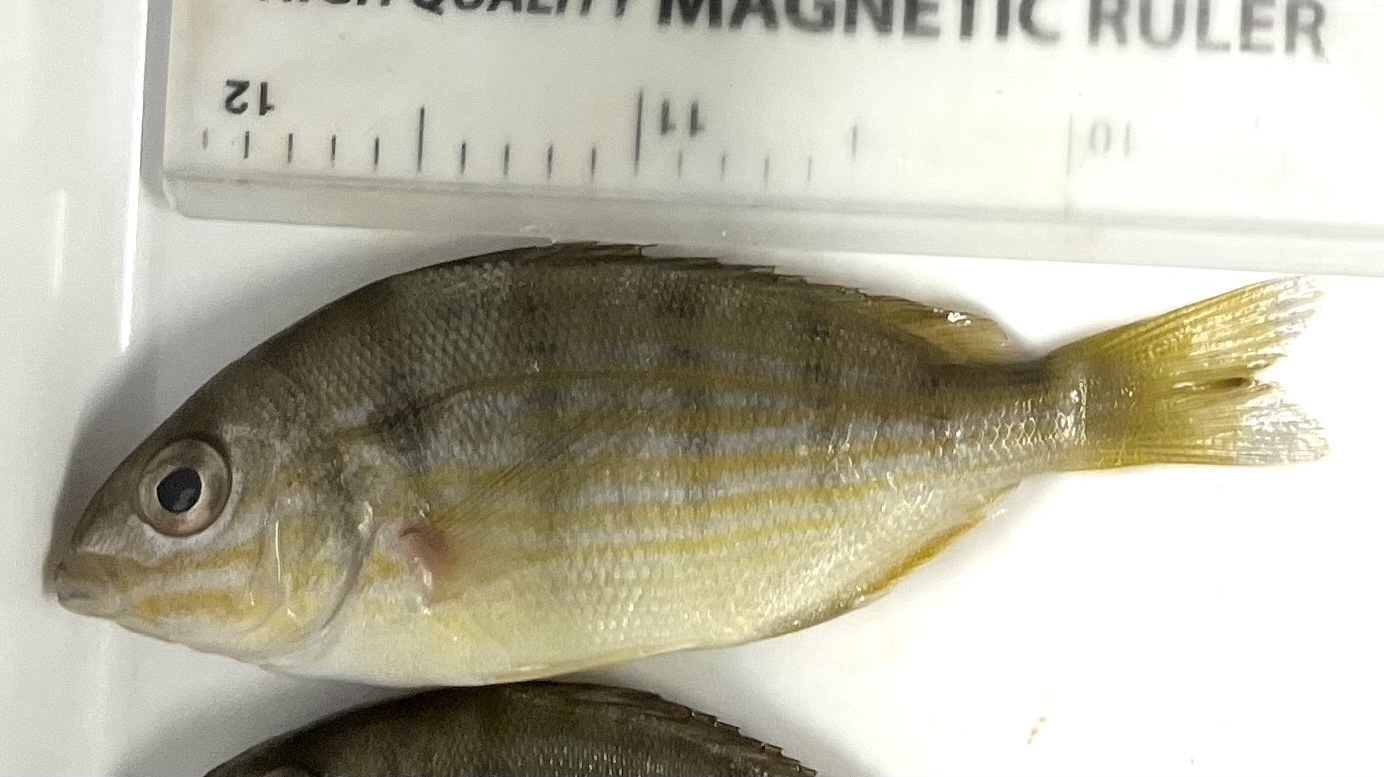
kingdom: Animalia
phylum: Chordata
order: Perciformes
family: Sparidae
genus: Lagodon
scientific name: Lagodon rhomboides
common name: Pinfish
